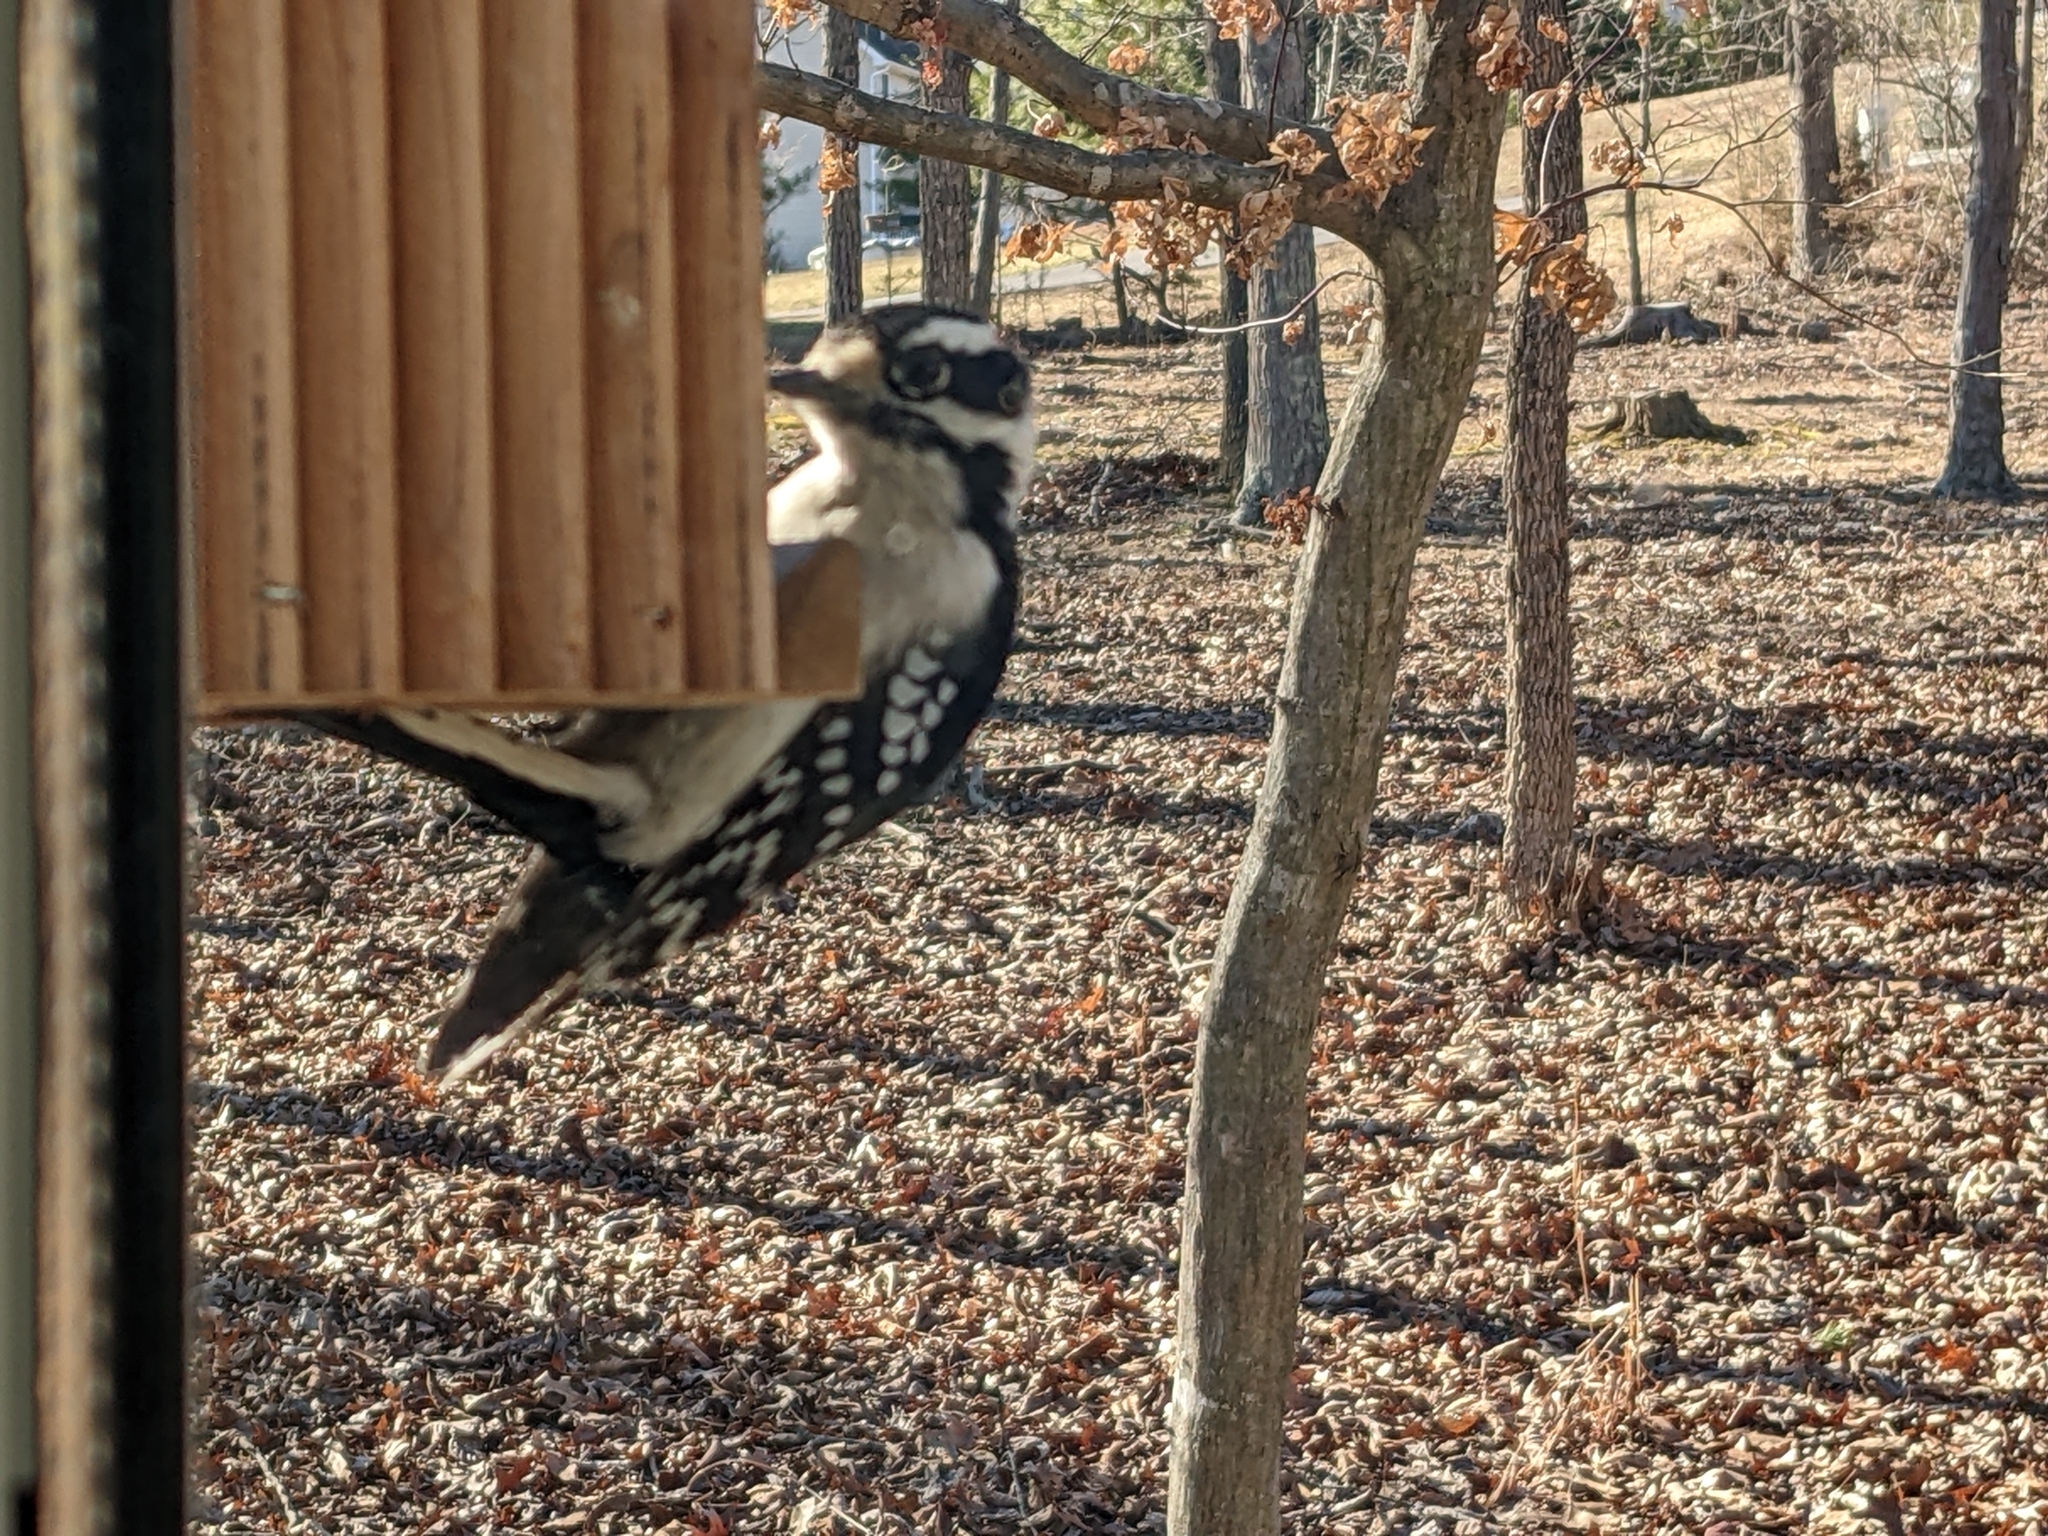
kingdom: Animalia
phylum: Chordata
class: Aves
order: Piciformes
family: Picidae
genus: Dryobates
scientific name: Dryobates pubescens
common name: Downy woodpecker
